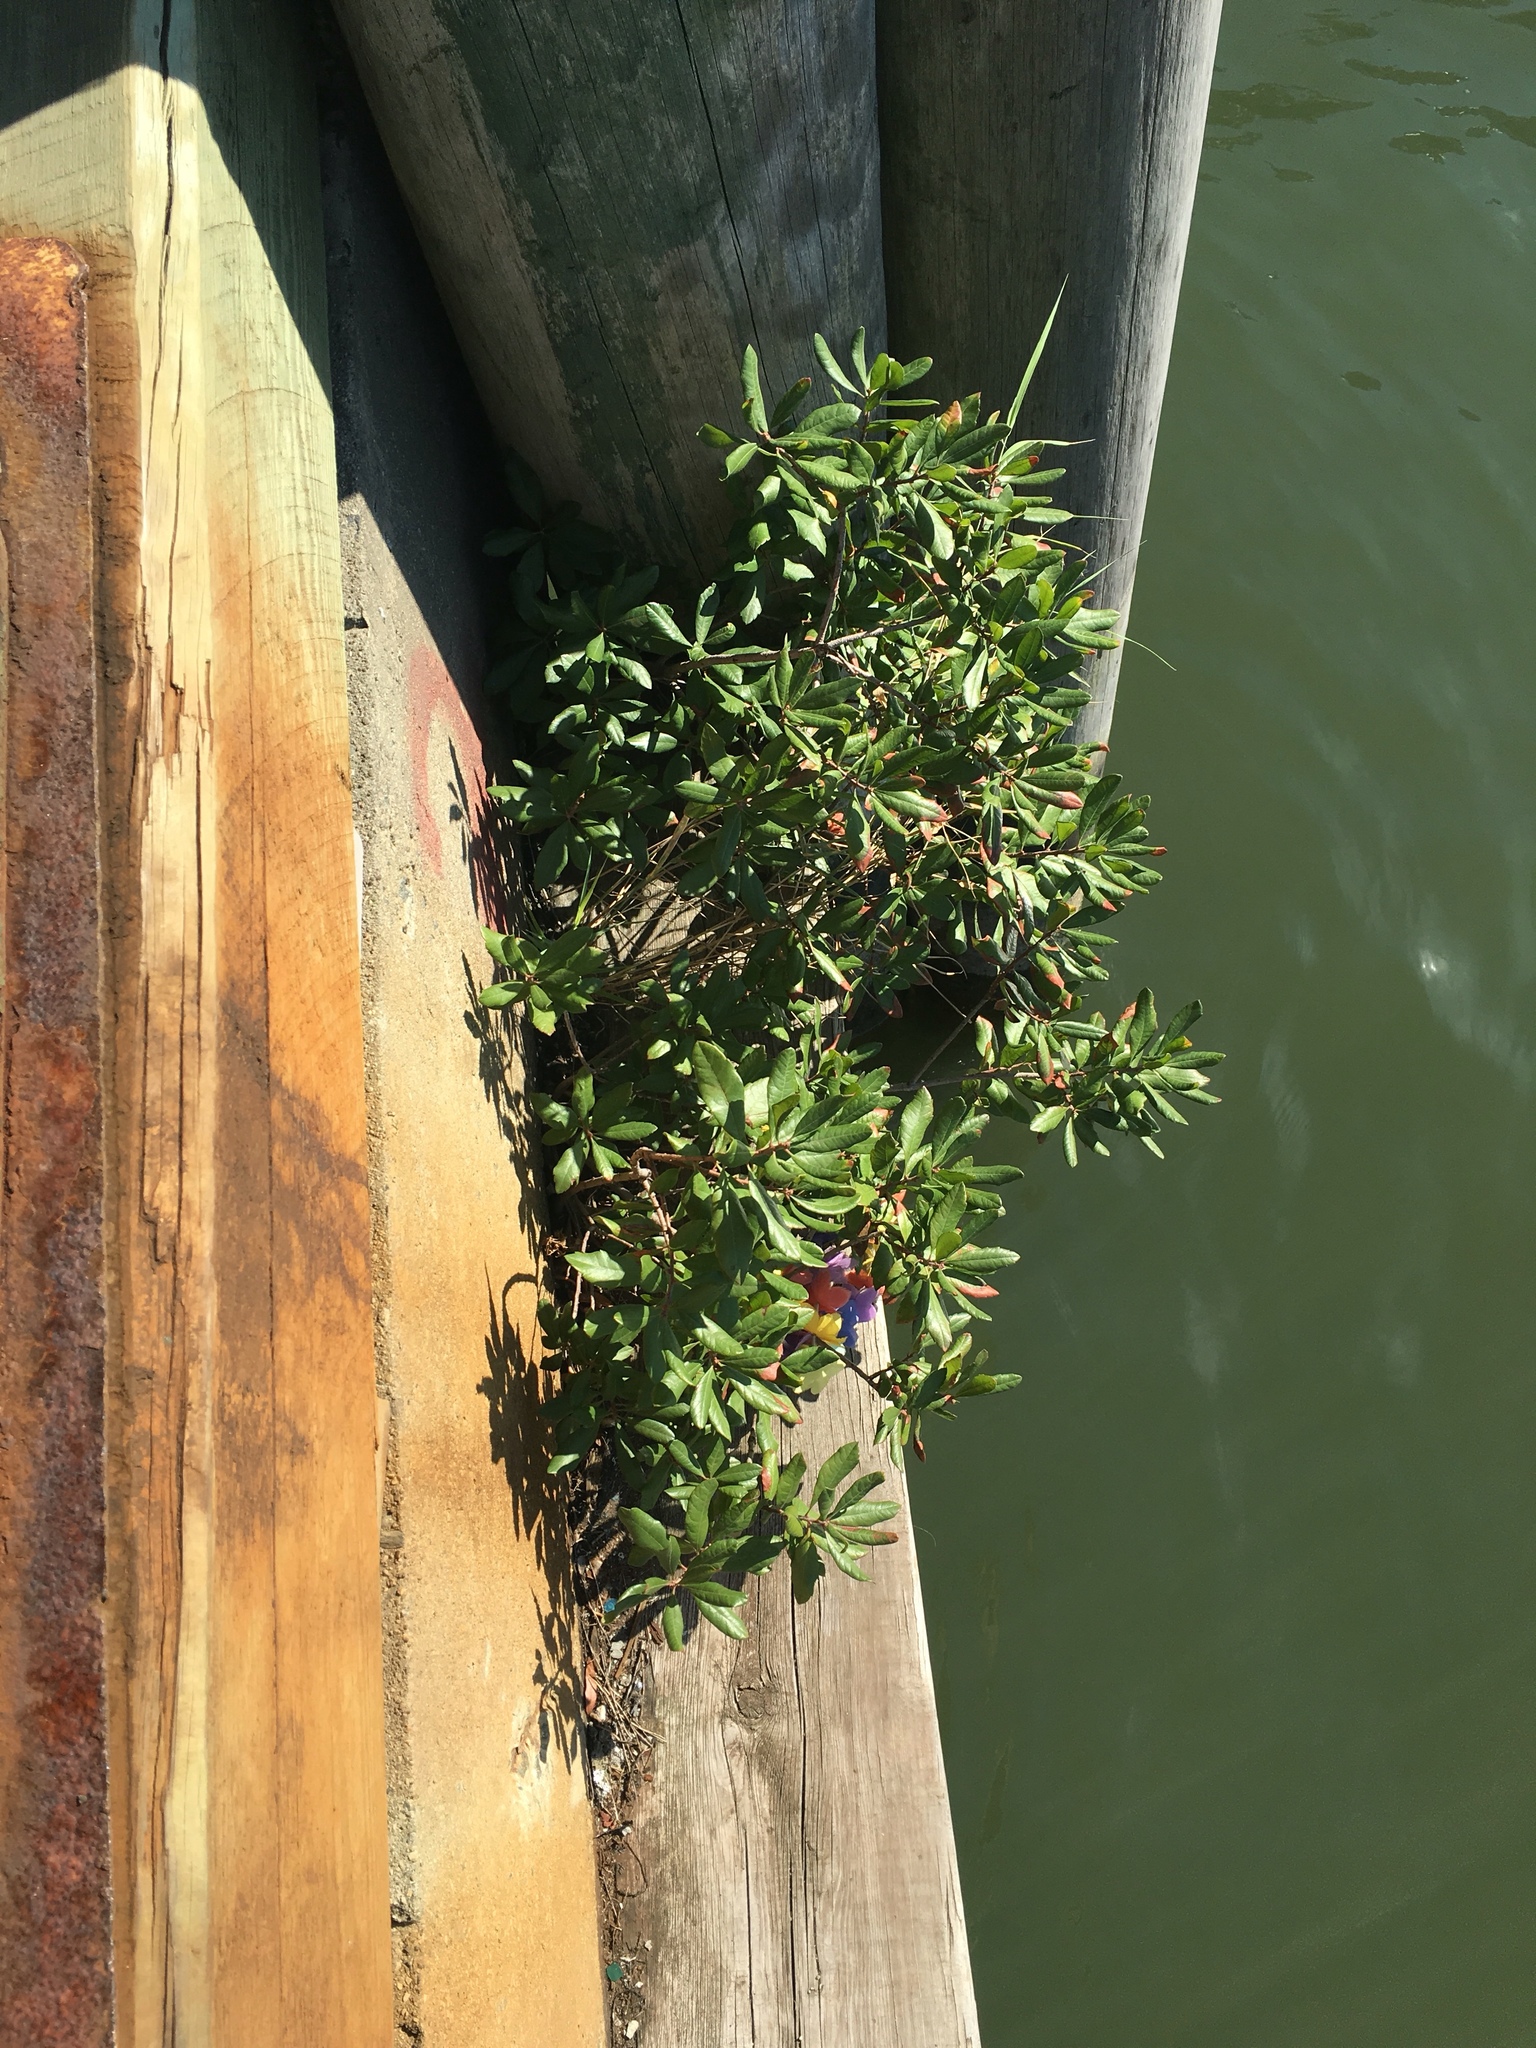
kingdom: Plantae
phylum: Tracheophyta
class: Magnoliopsida
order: Fagales
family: Myricaceae
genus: Morella
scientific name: Morella pensylvanica
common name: Northern bayberry
